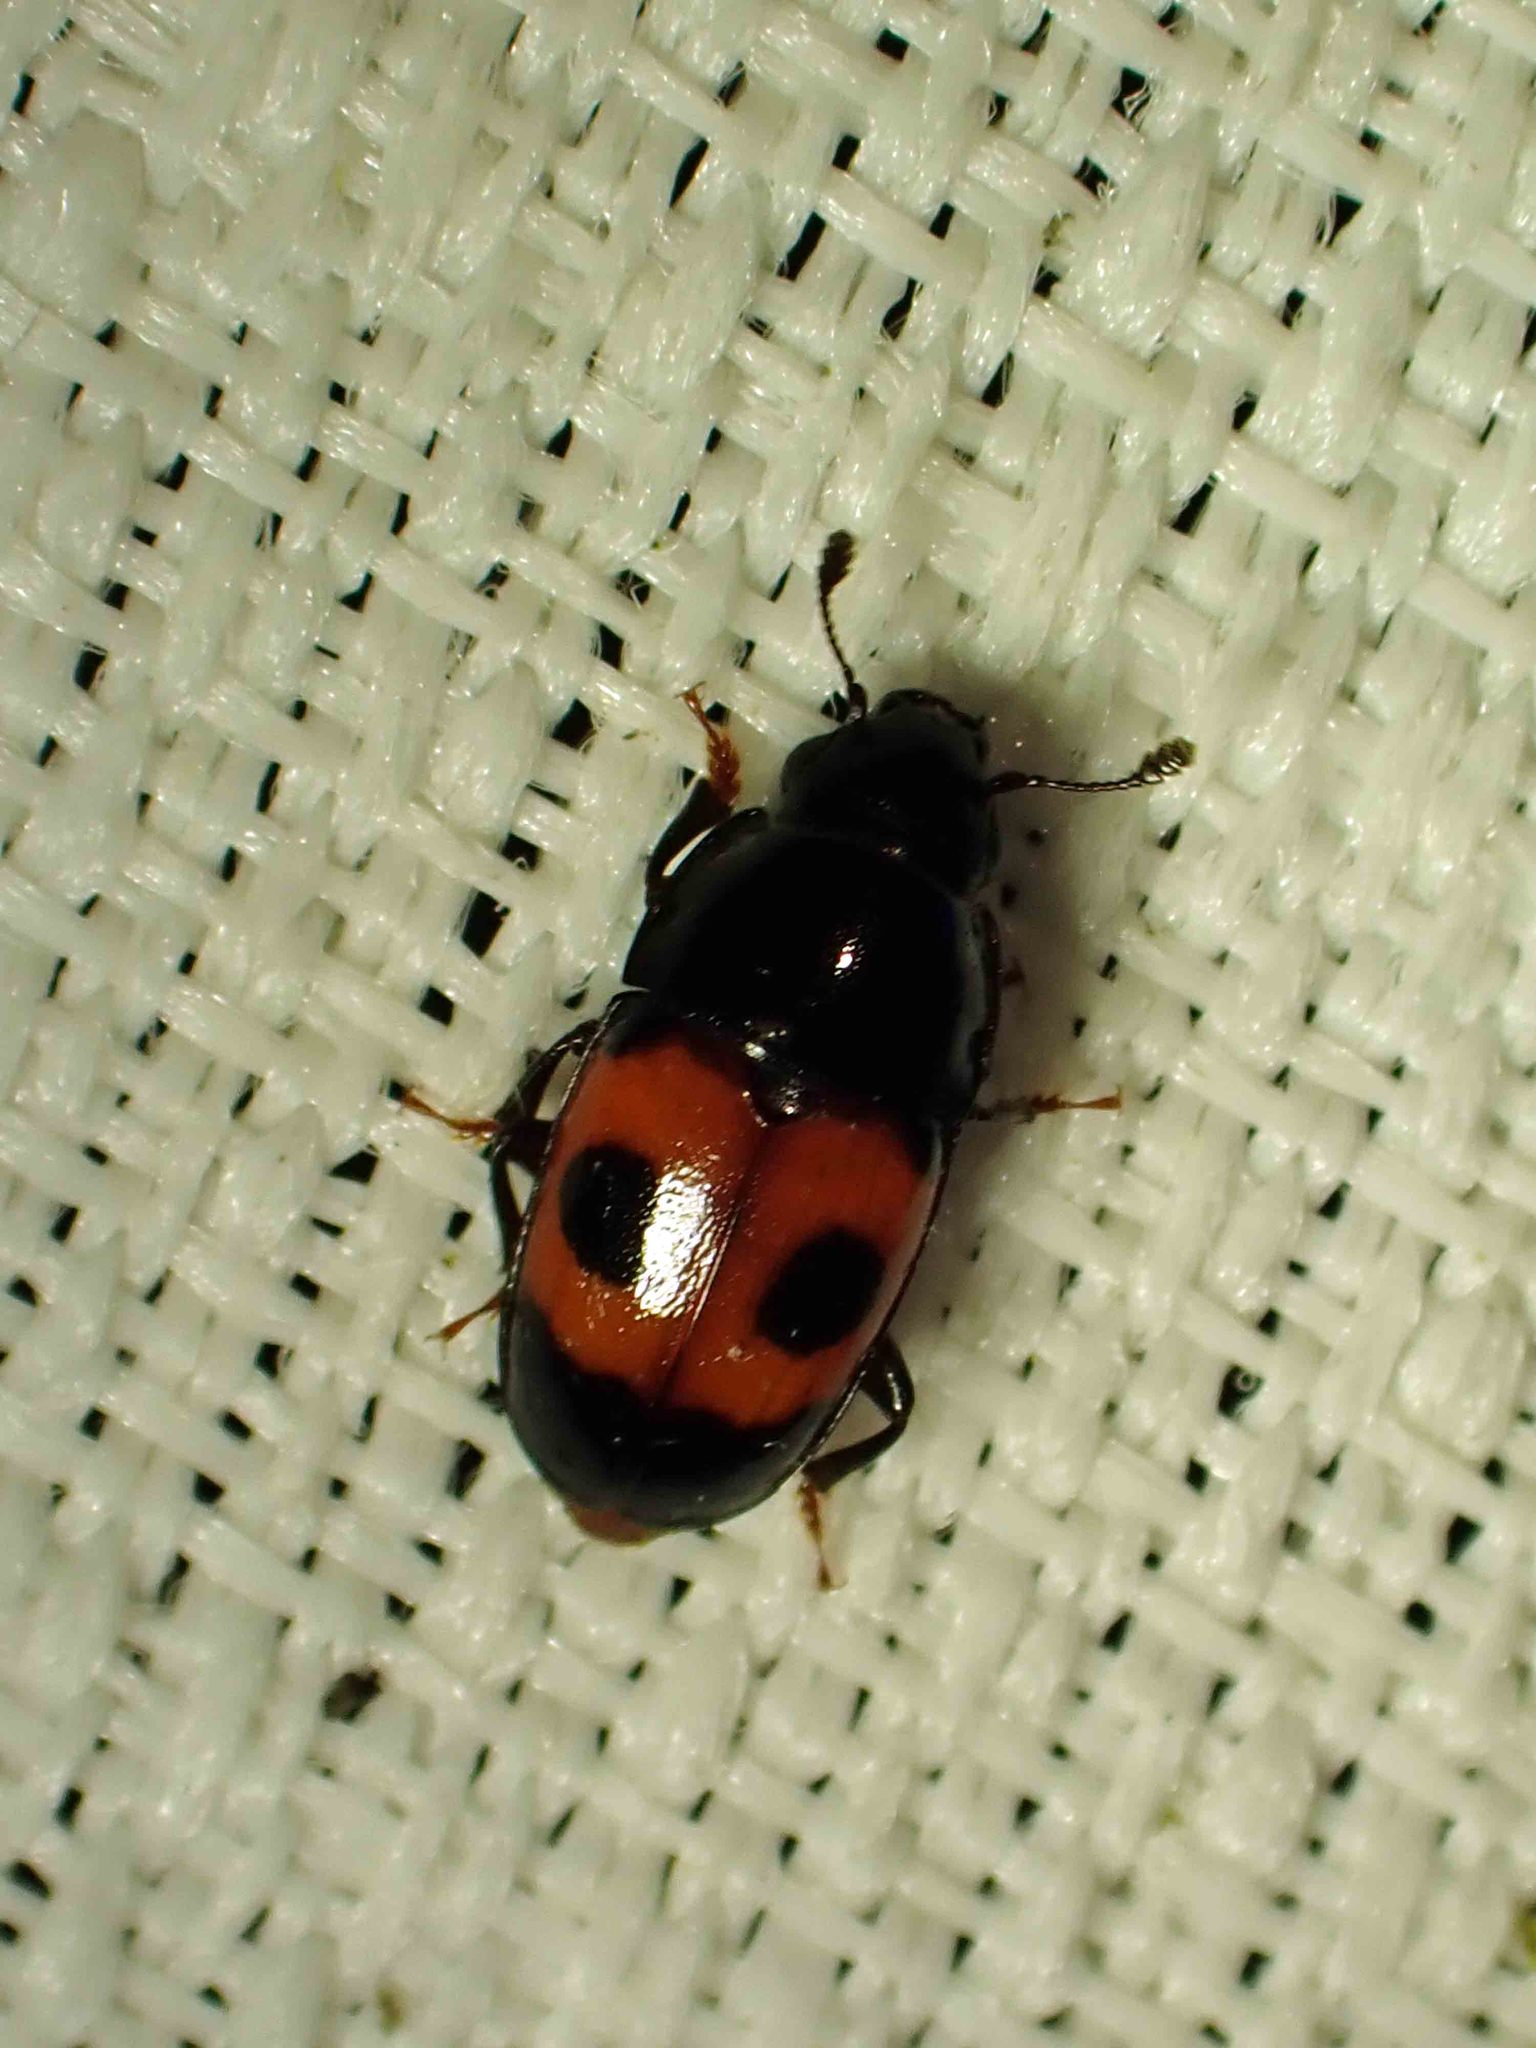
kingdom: Animalia
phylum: Arthropoda
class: Insecta
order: Coleoptera
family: Nitidulidae
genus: Glischrochilus
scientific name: Glischrochilus sanguinolentus
